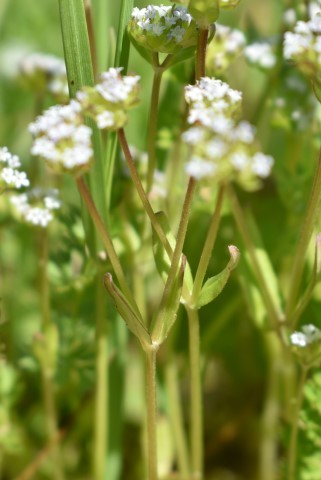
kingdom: Plantae
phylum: Tracheophyta
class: Magnoliopsida
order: Dipsacales
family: Caprifoliaceae
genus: Valerianella
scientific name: Valerianella locusta
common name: Common cornsalad
